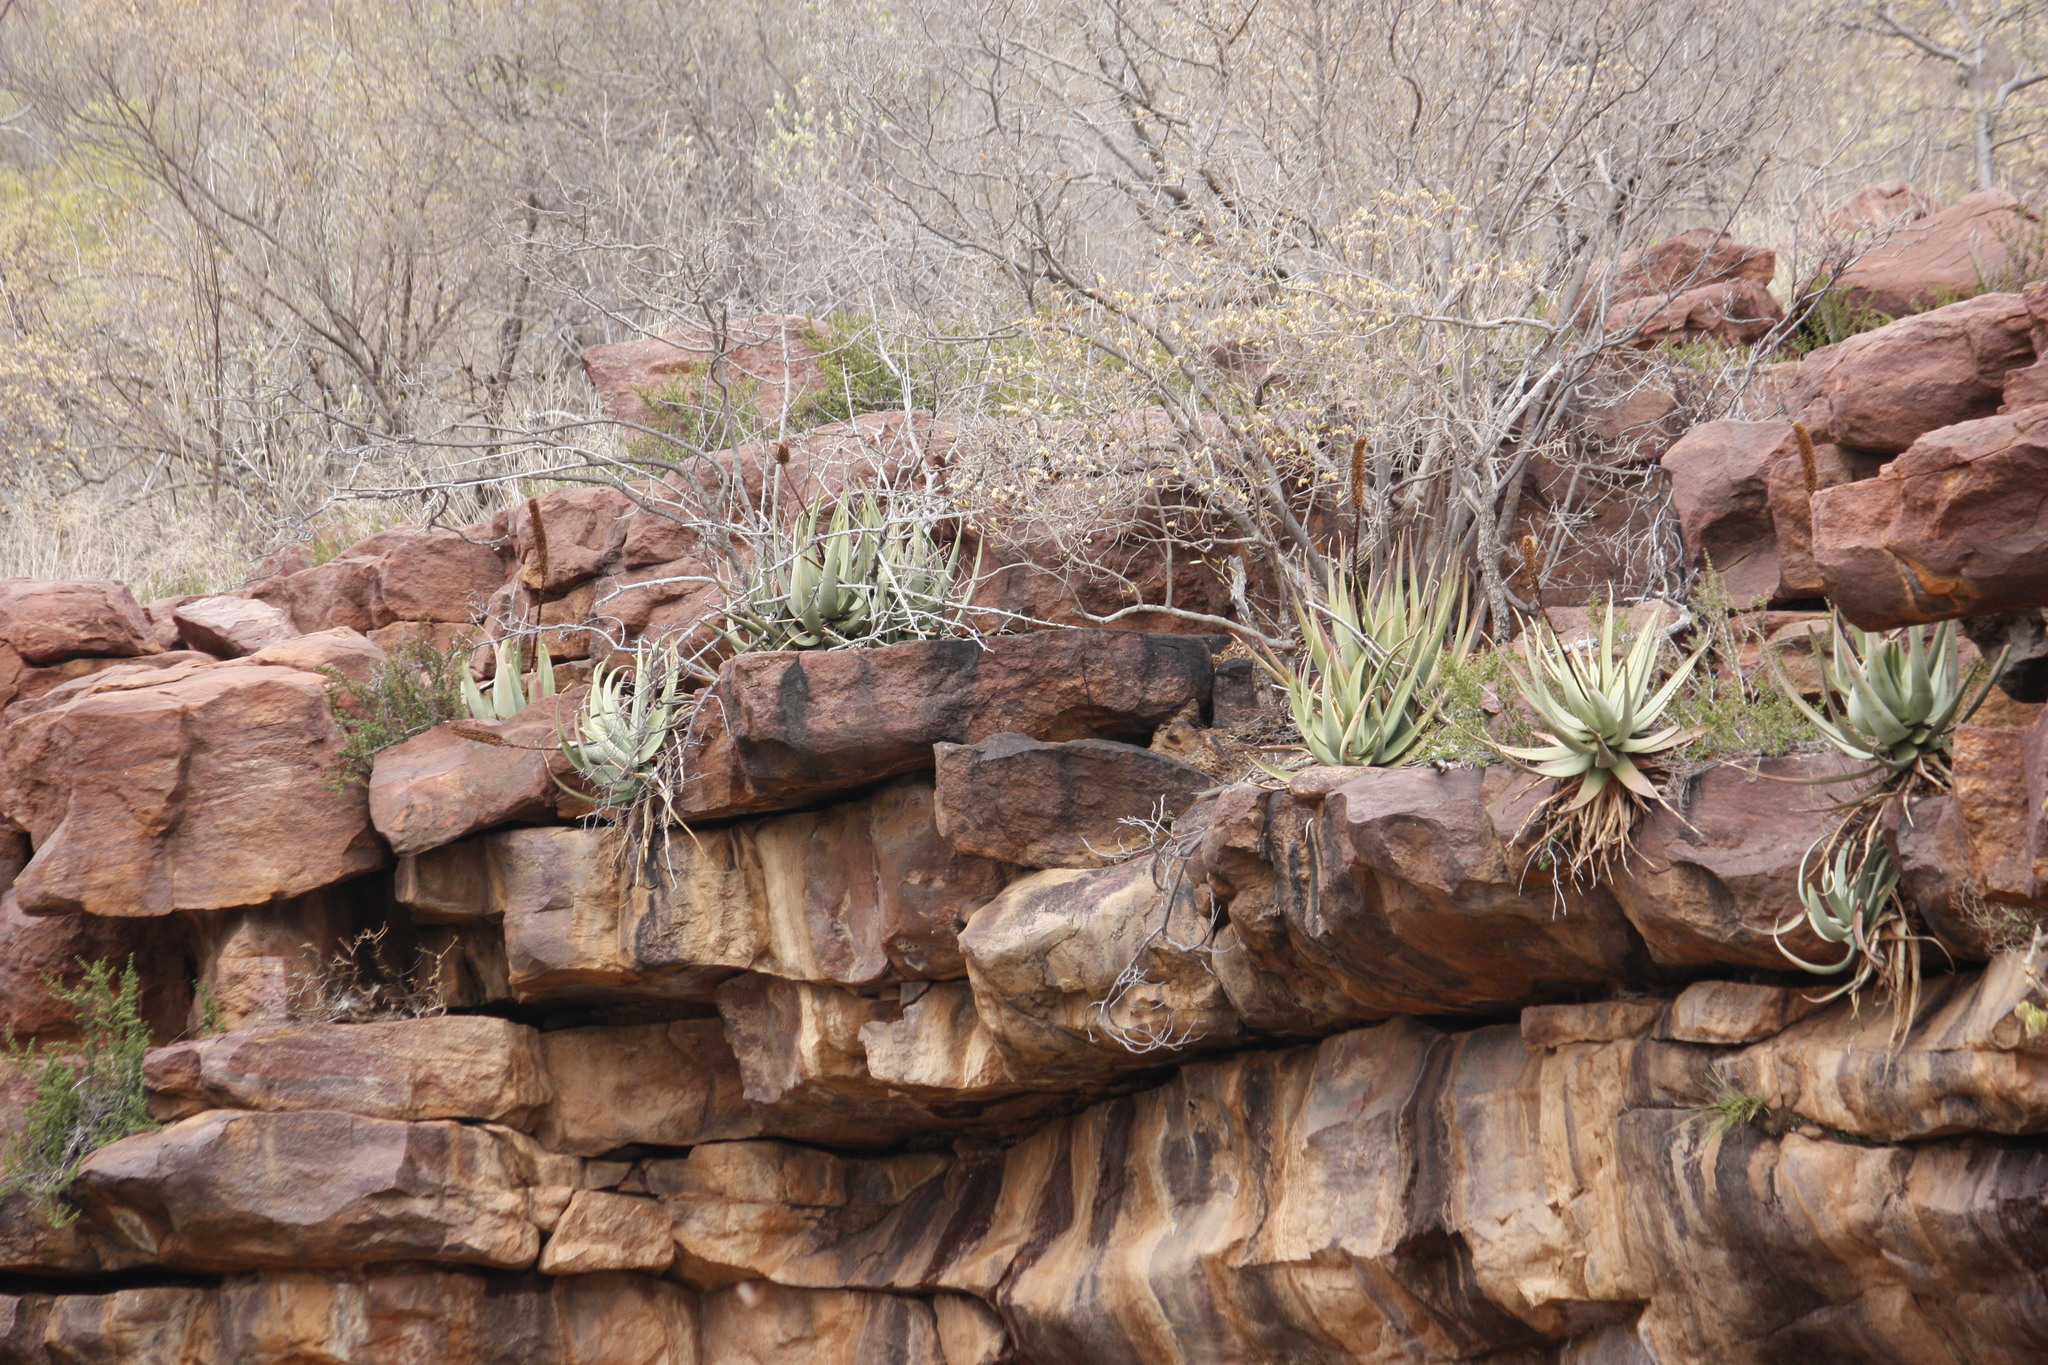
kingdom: Plantae
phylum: Tracheophyta
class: Liliopsida
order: Asparagales
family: Asphodelaceae
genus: Aloe
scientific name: Aloe spicata
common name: Gazaland aloe
